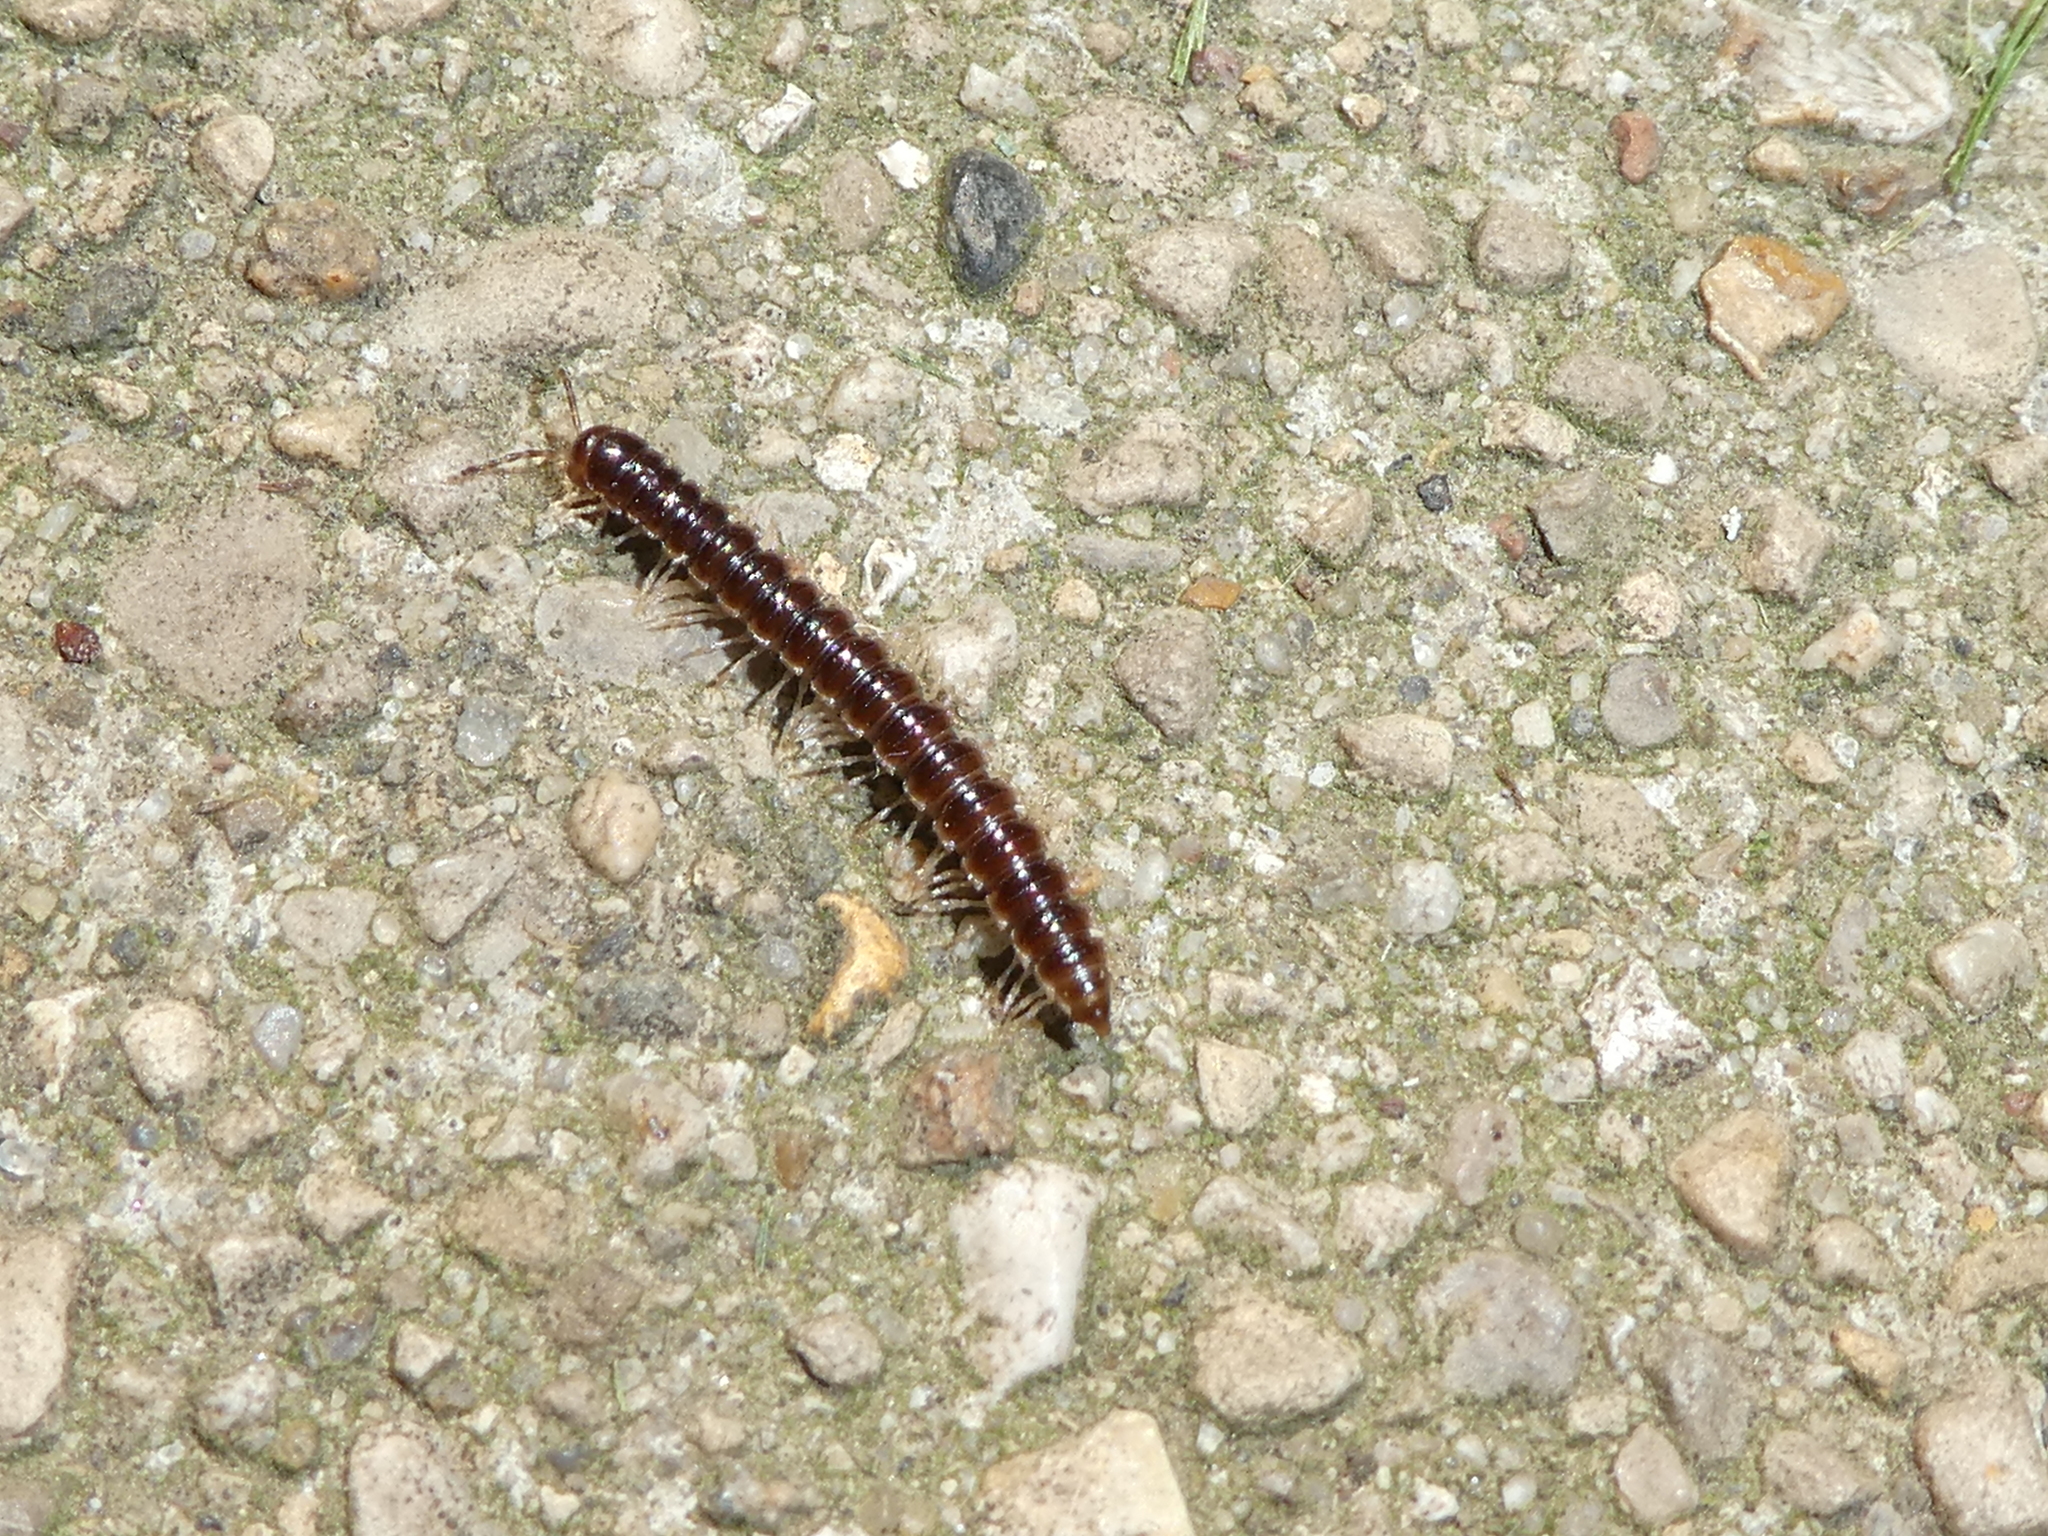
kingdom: Animalia
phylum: Arthropoda
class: Diplopoda
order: Polydesmida
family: Paradoxosomatidae
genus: Oxidus
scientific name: Oxidus gracilis
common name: Greenhouse millipede
